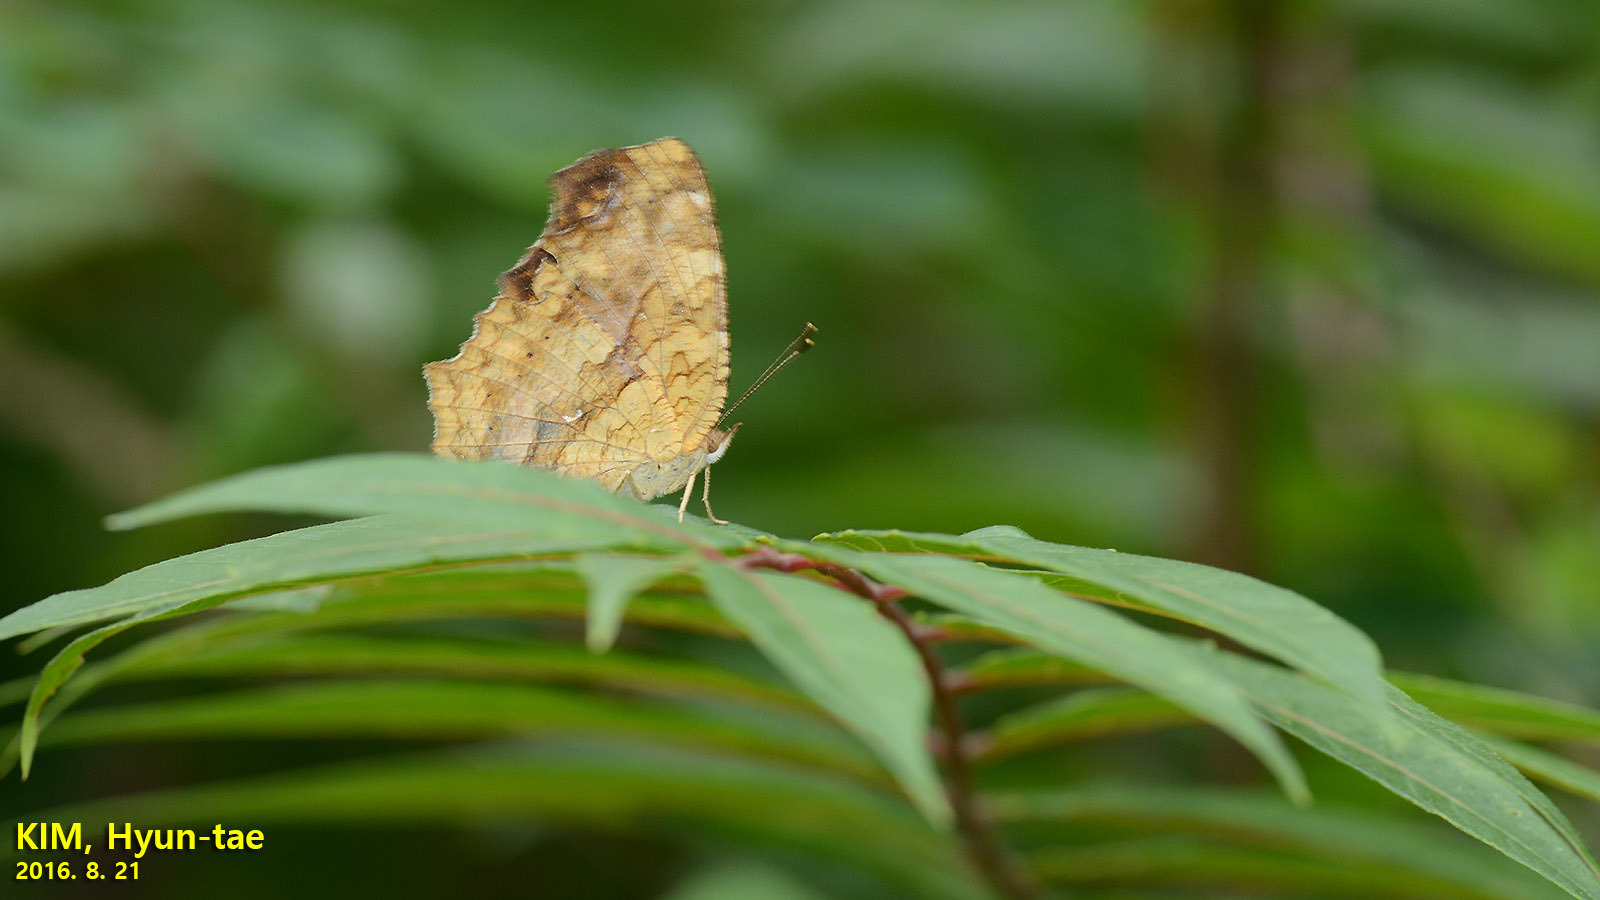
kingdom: Animalia
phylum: Arthropoda
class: Insecta
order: Lepidoptera
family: Nymphalidae
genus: Polygonia
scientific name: Polygonia c-aureum
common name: Asian comma
